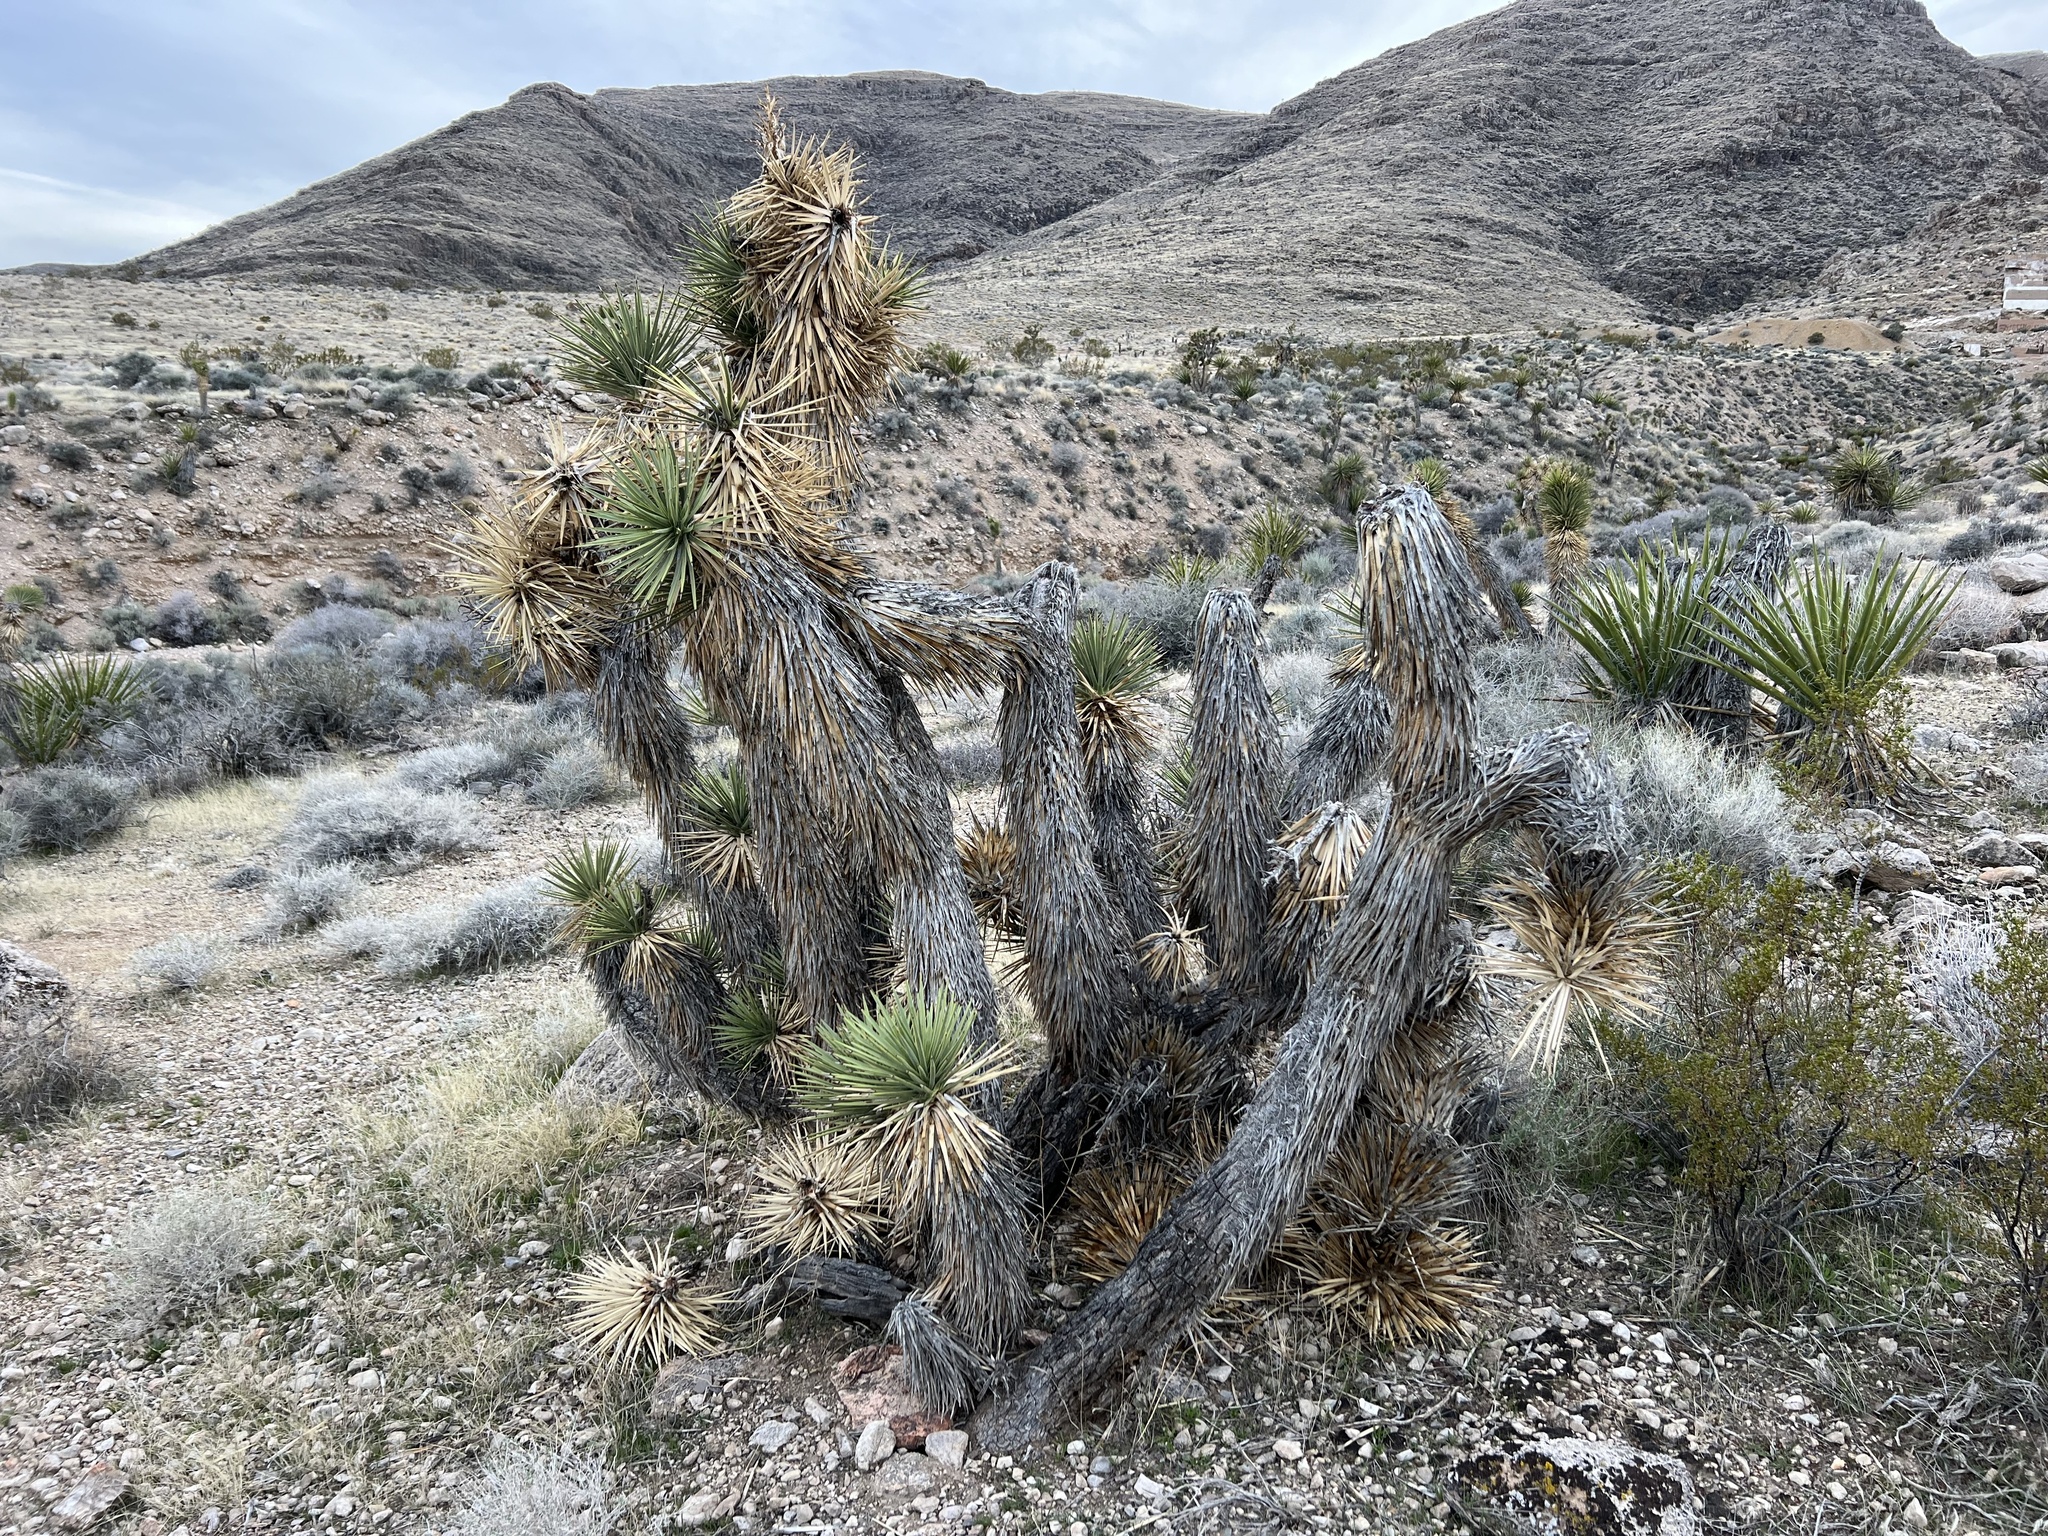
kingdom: Plantae
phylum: Tracheophyta
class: Liliopsida
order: Asparagales
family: Asparagaceae
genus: Yucca
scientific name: Yucca brevifolia
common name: Joshua tree
